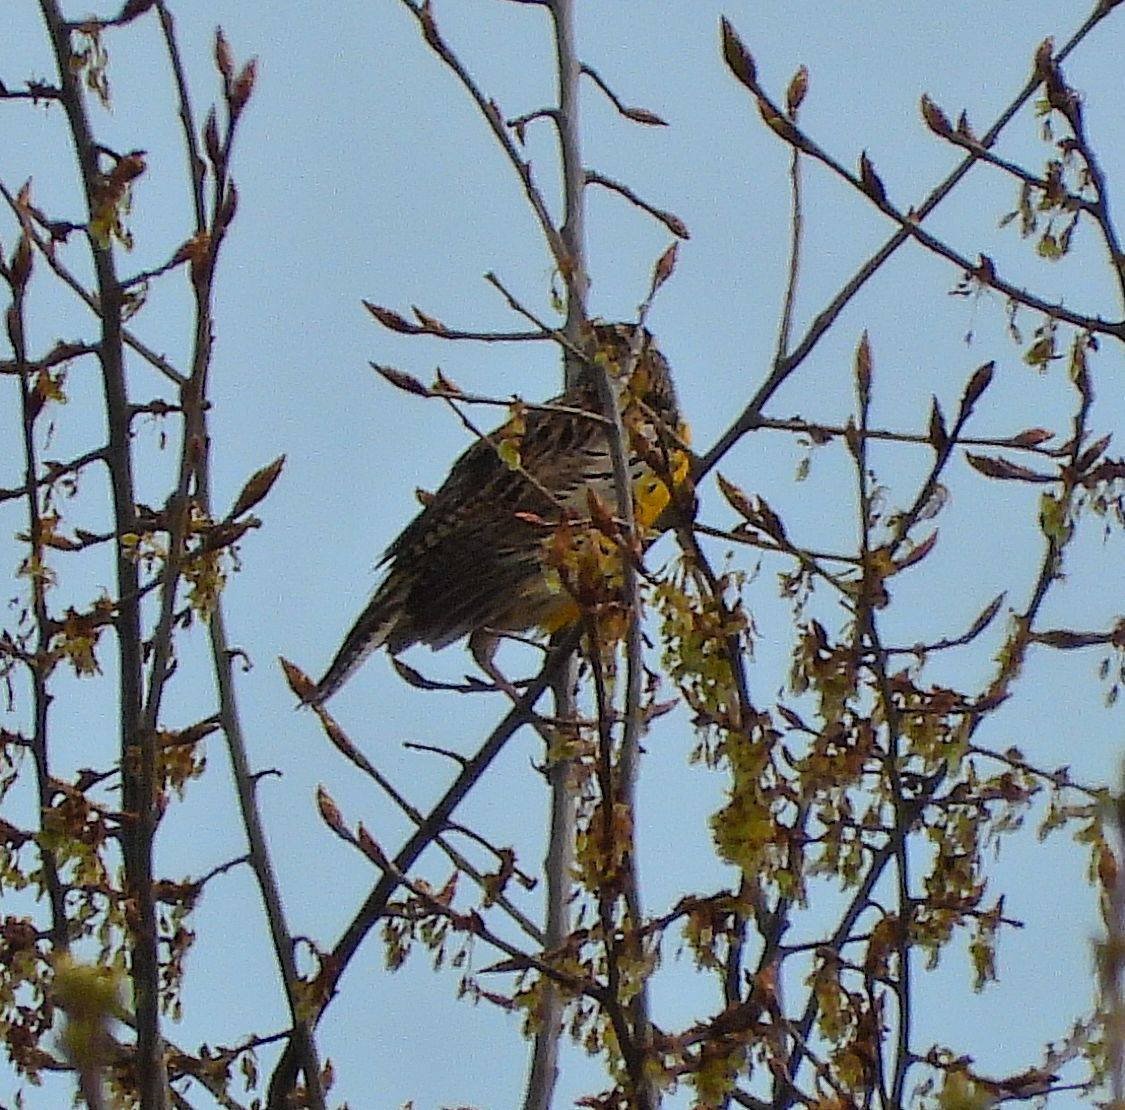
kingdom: Animalia
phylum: Chordata
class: Aves
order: Passeriformes
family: Icteridae
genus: Sturnella
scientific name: Sturnella magna
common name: Eastern meadowlark
